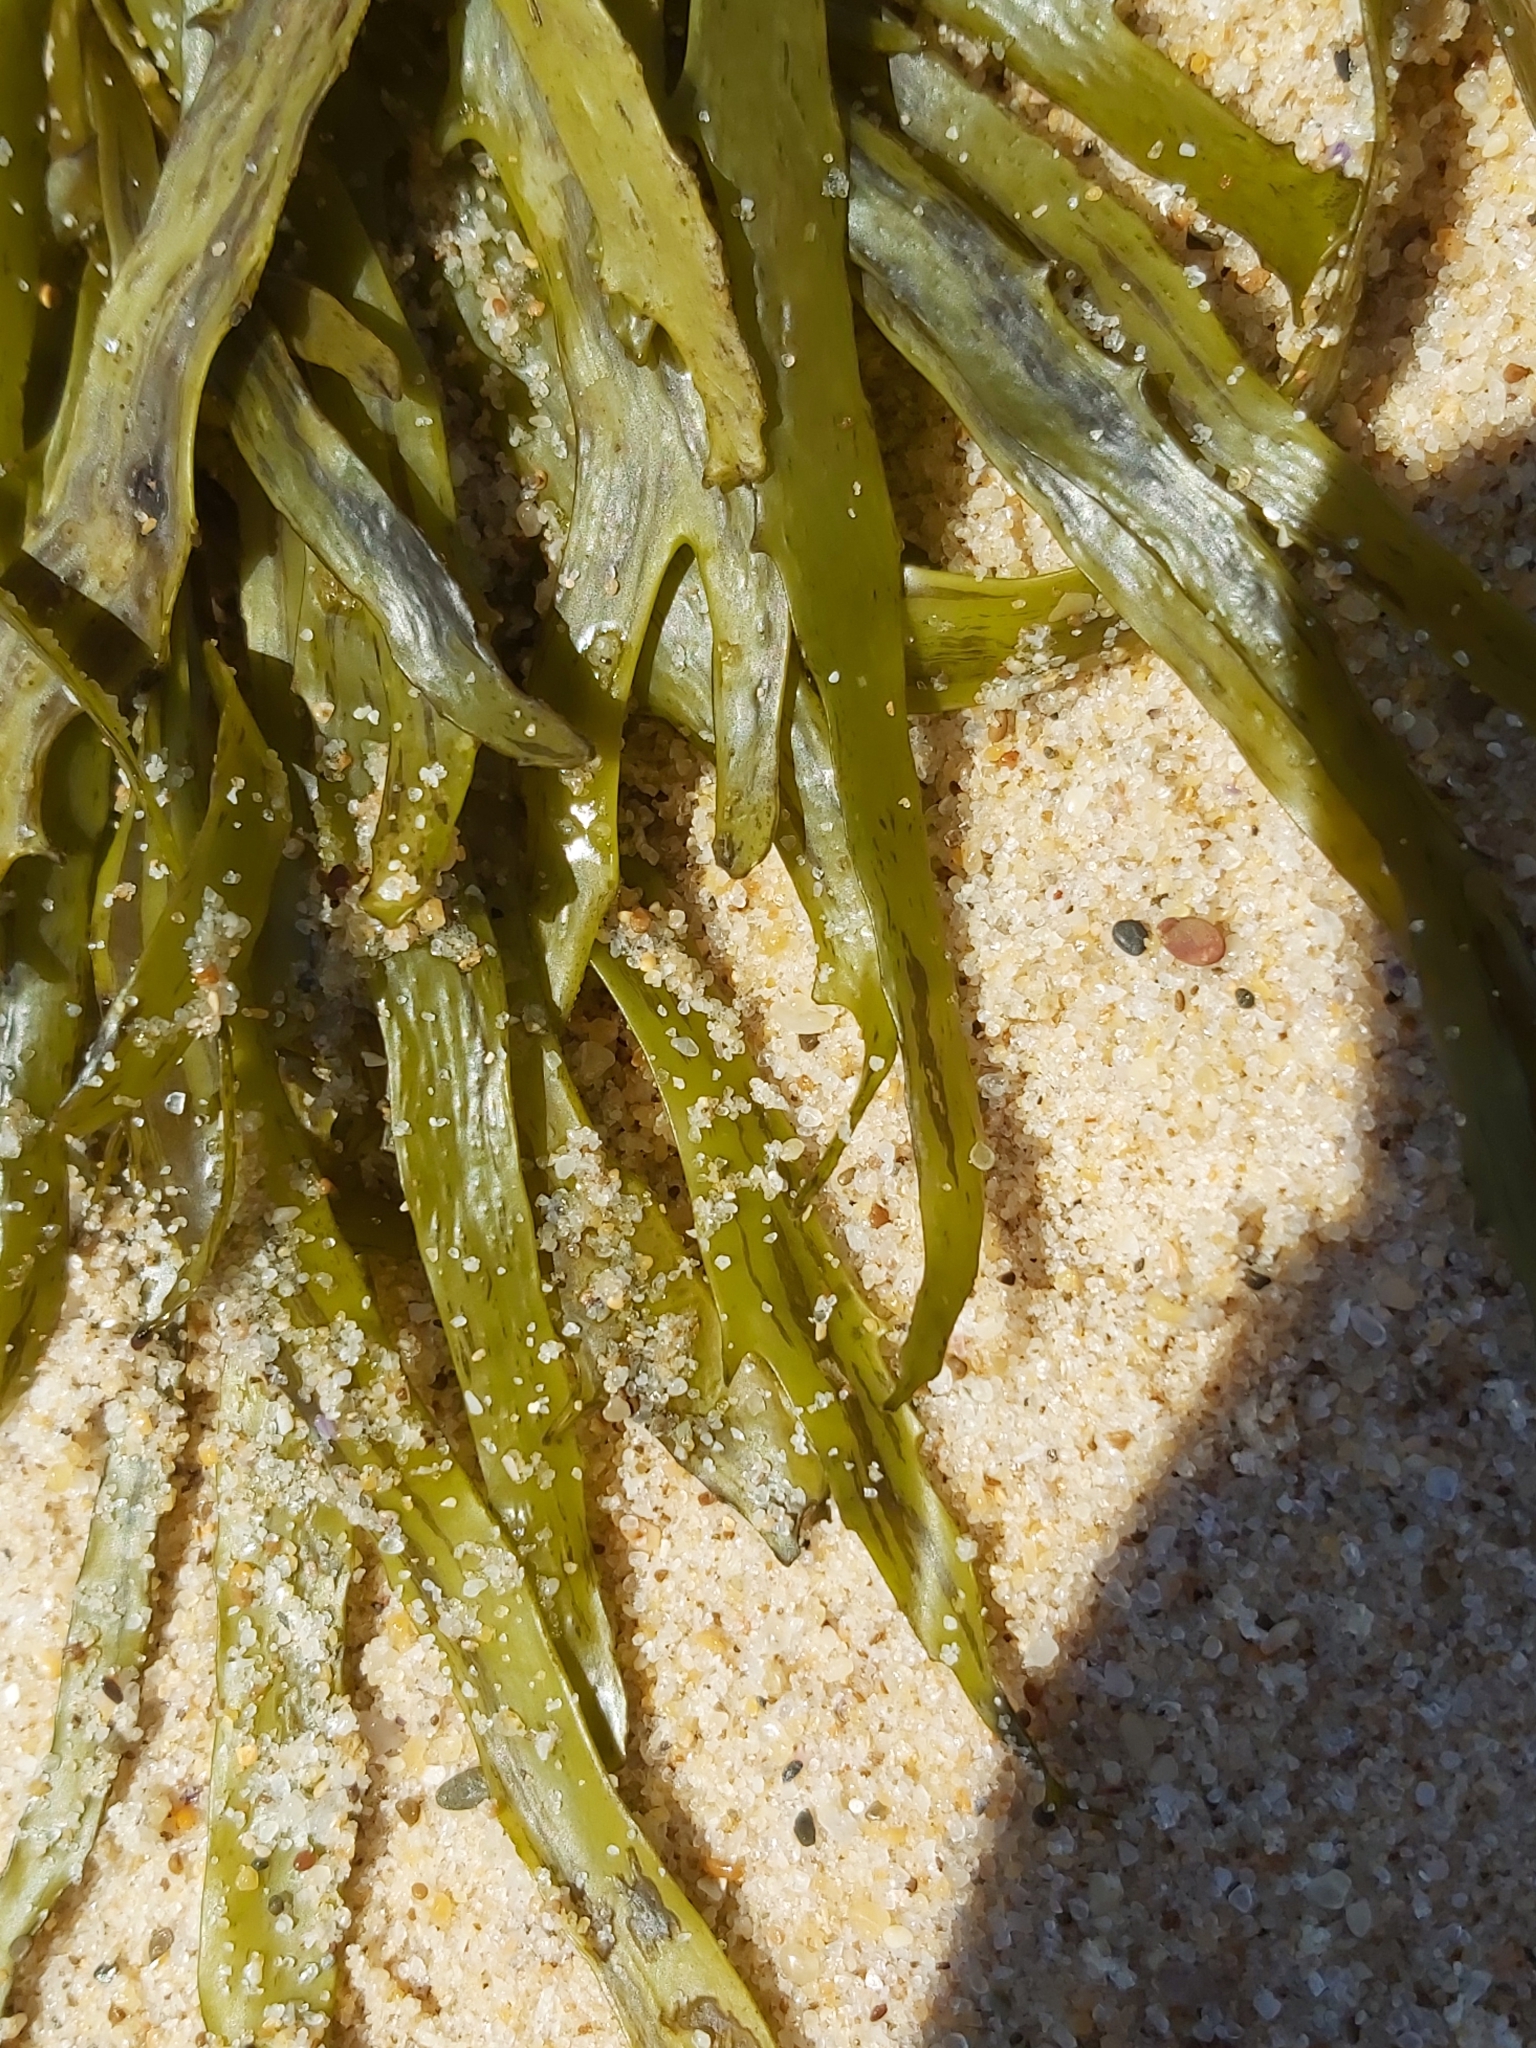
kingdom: Chromista
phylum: Ochrophyta
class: Phaeophyceae
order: Fucales
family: Seirococcaceae
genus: Phyllospora
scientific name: Phyllospora
